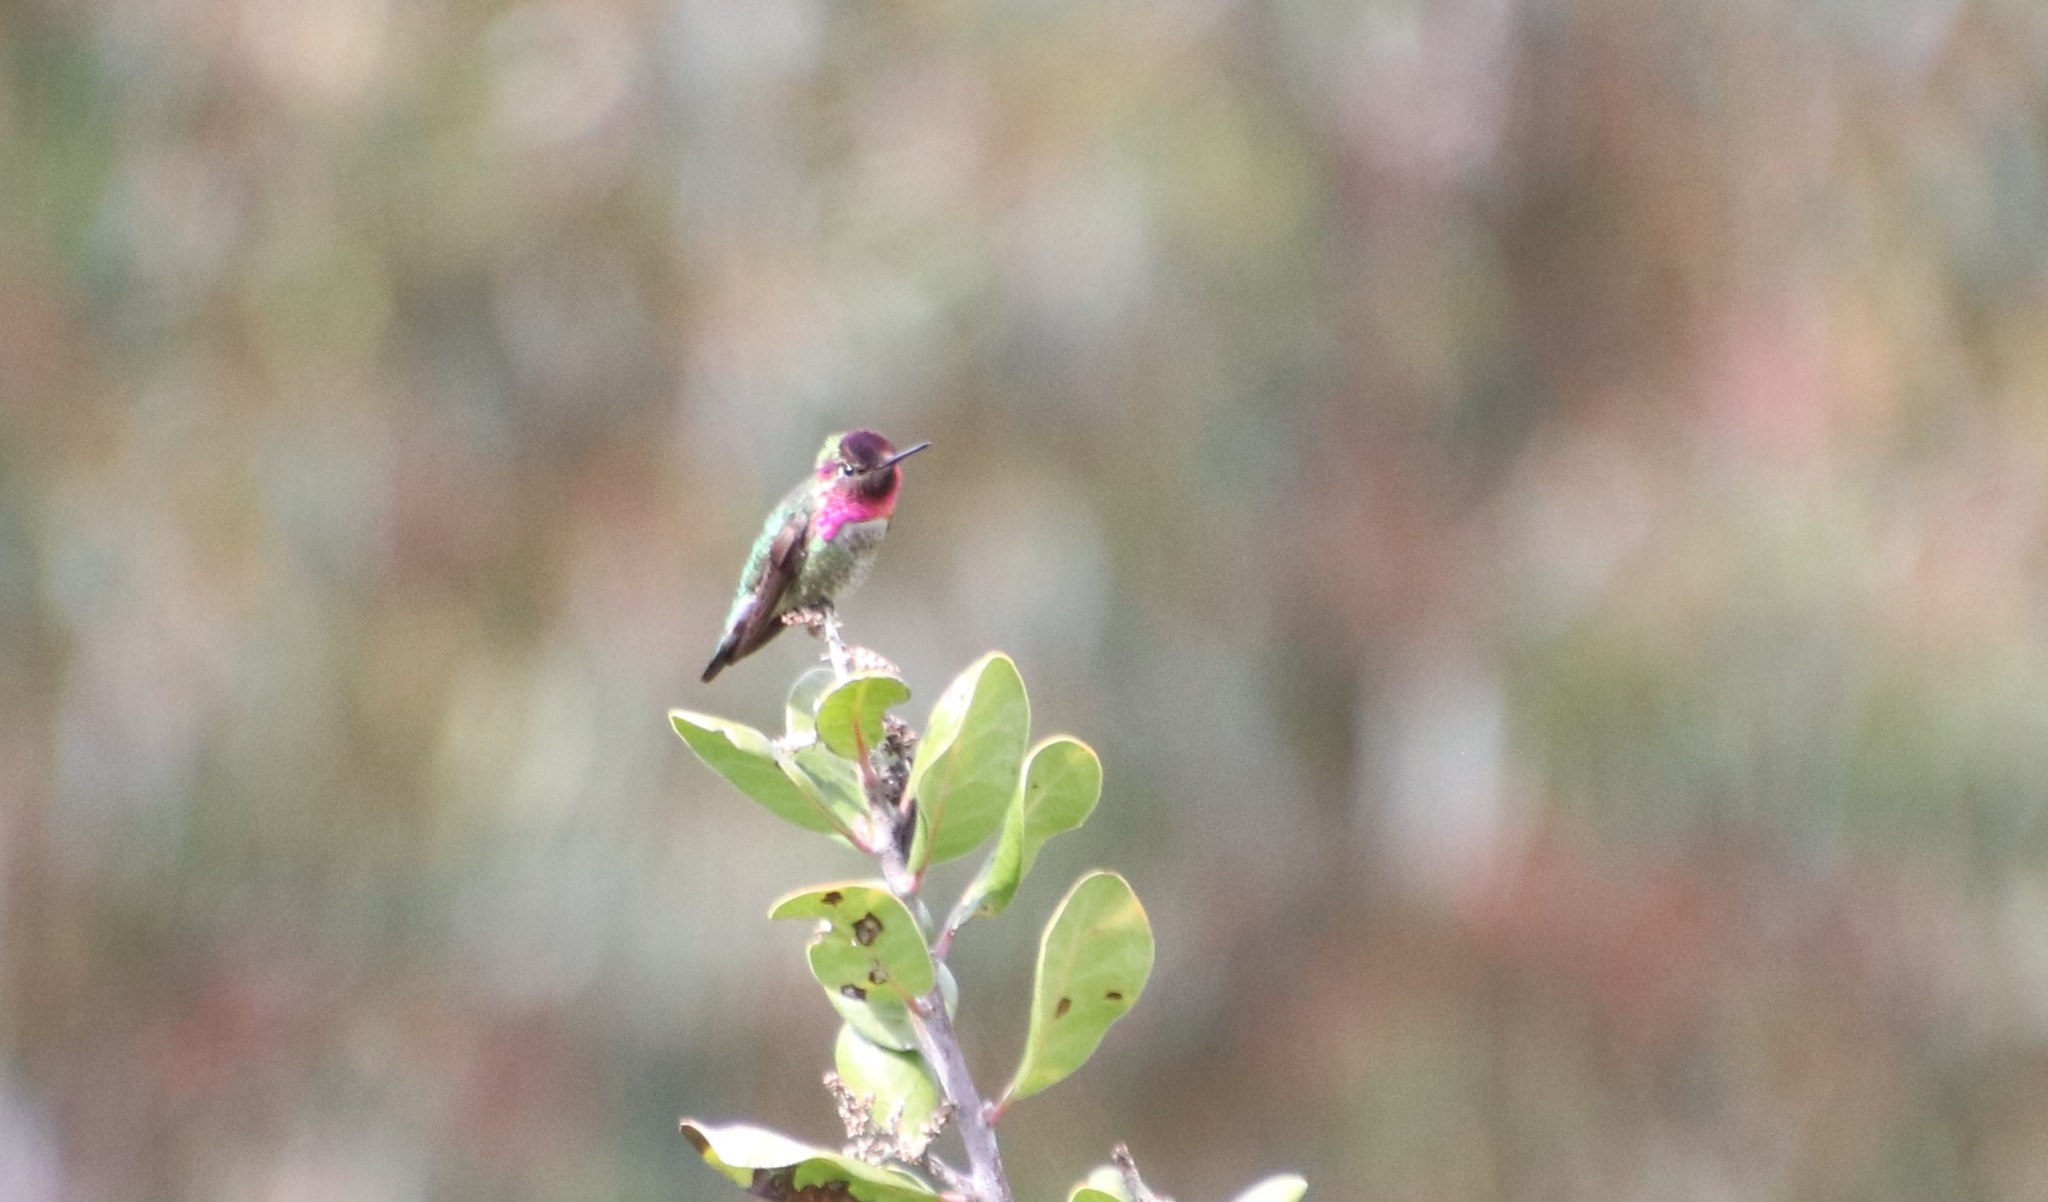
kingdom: Animalia
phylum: Chordata
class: Aves
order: Apodiformes
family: Trochilidae
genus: Calypte
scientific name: Calypte anna
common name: Anna's hummingbird
